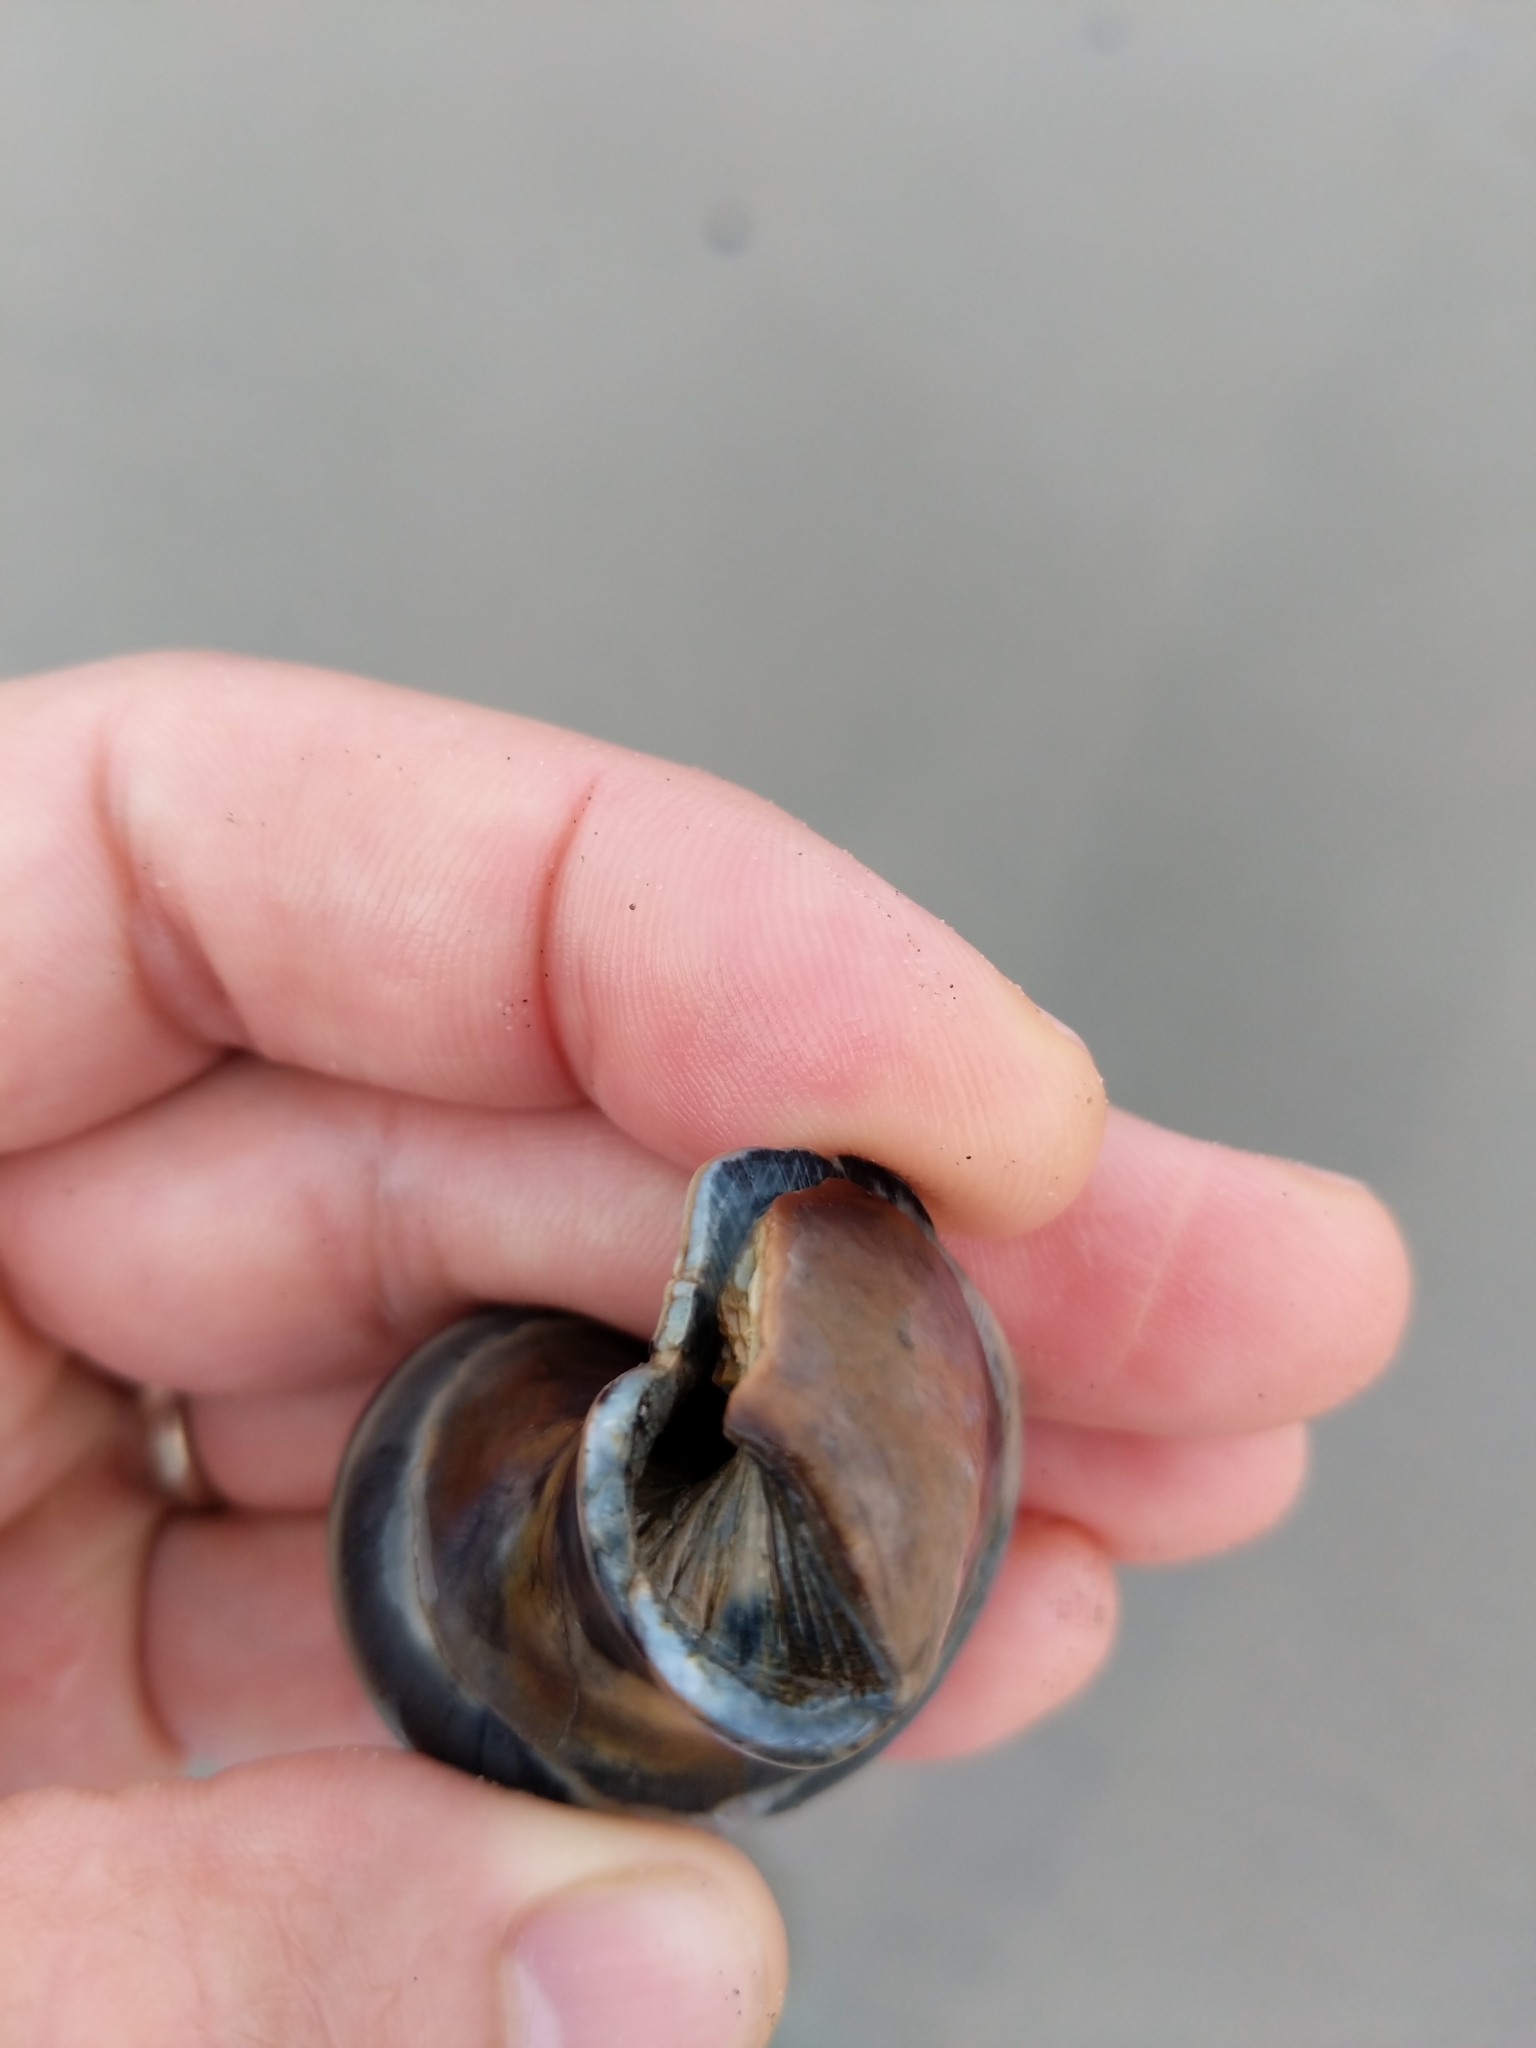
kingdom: Animalia
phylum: Mollusca
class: Gastropoda
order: Littorinimorpha
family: Naticidae
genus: Neverita
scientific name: Neverita duplicata
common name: Lobed moonsnail
